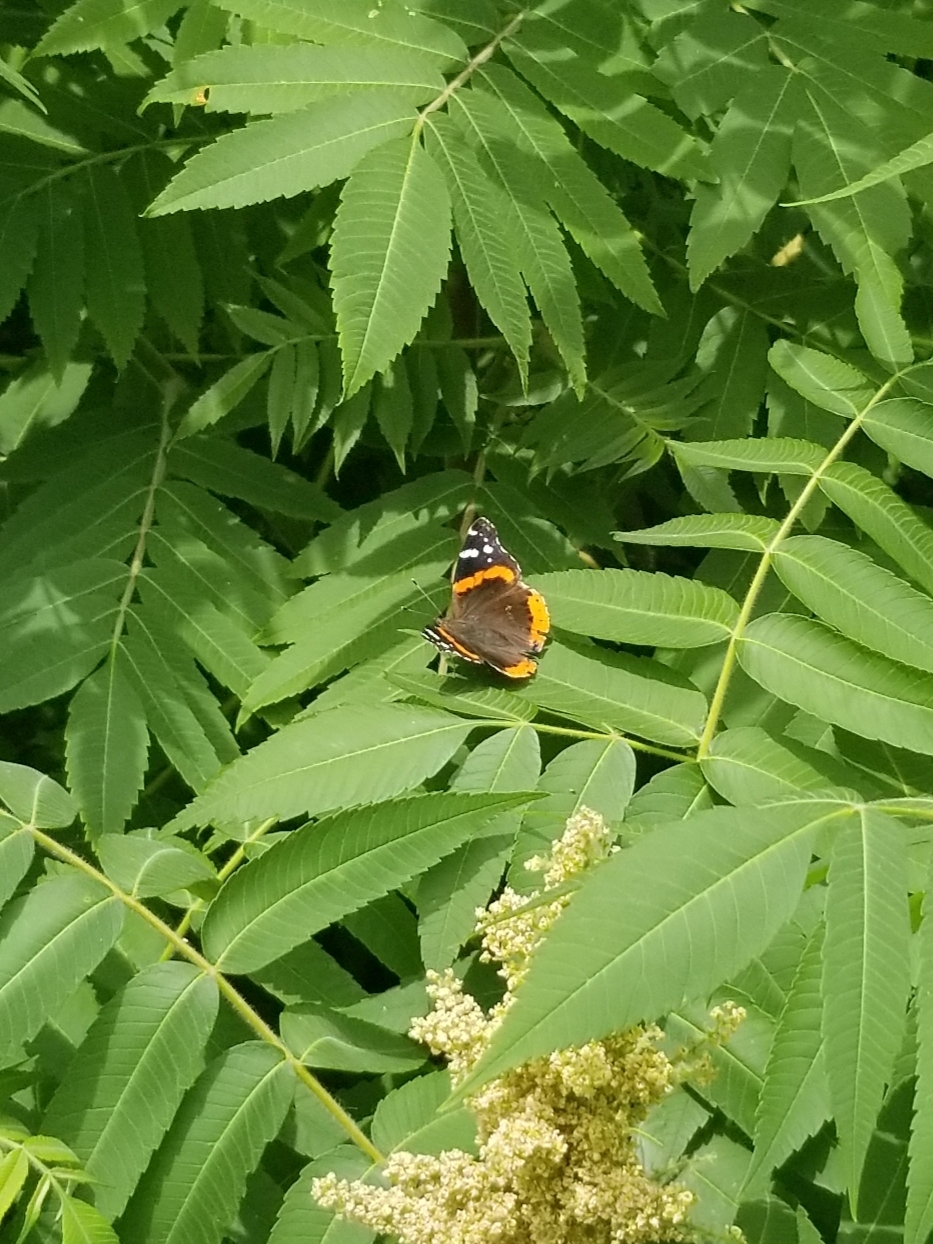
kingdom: Animalia
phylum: Arthropoda
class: Insecta
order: Lepidoptera
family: Nymphalidae
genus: Vanessa
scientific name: Vanessa atalanta
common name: Red admiral
